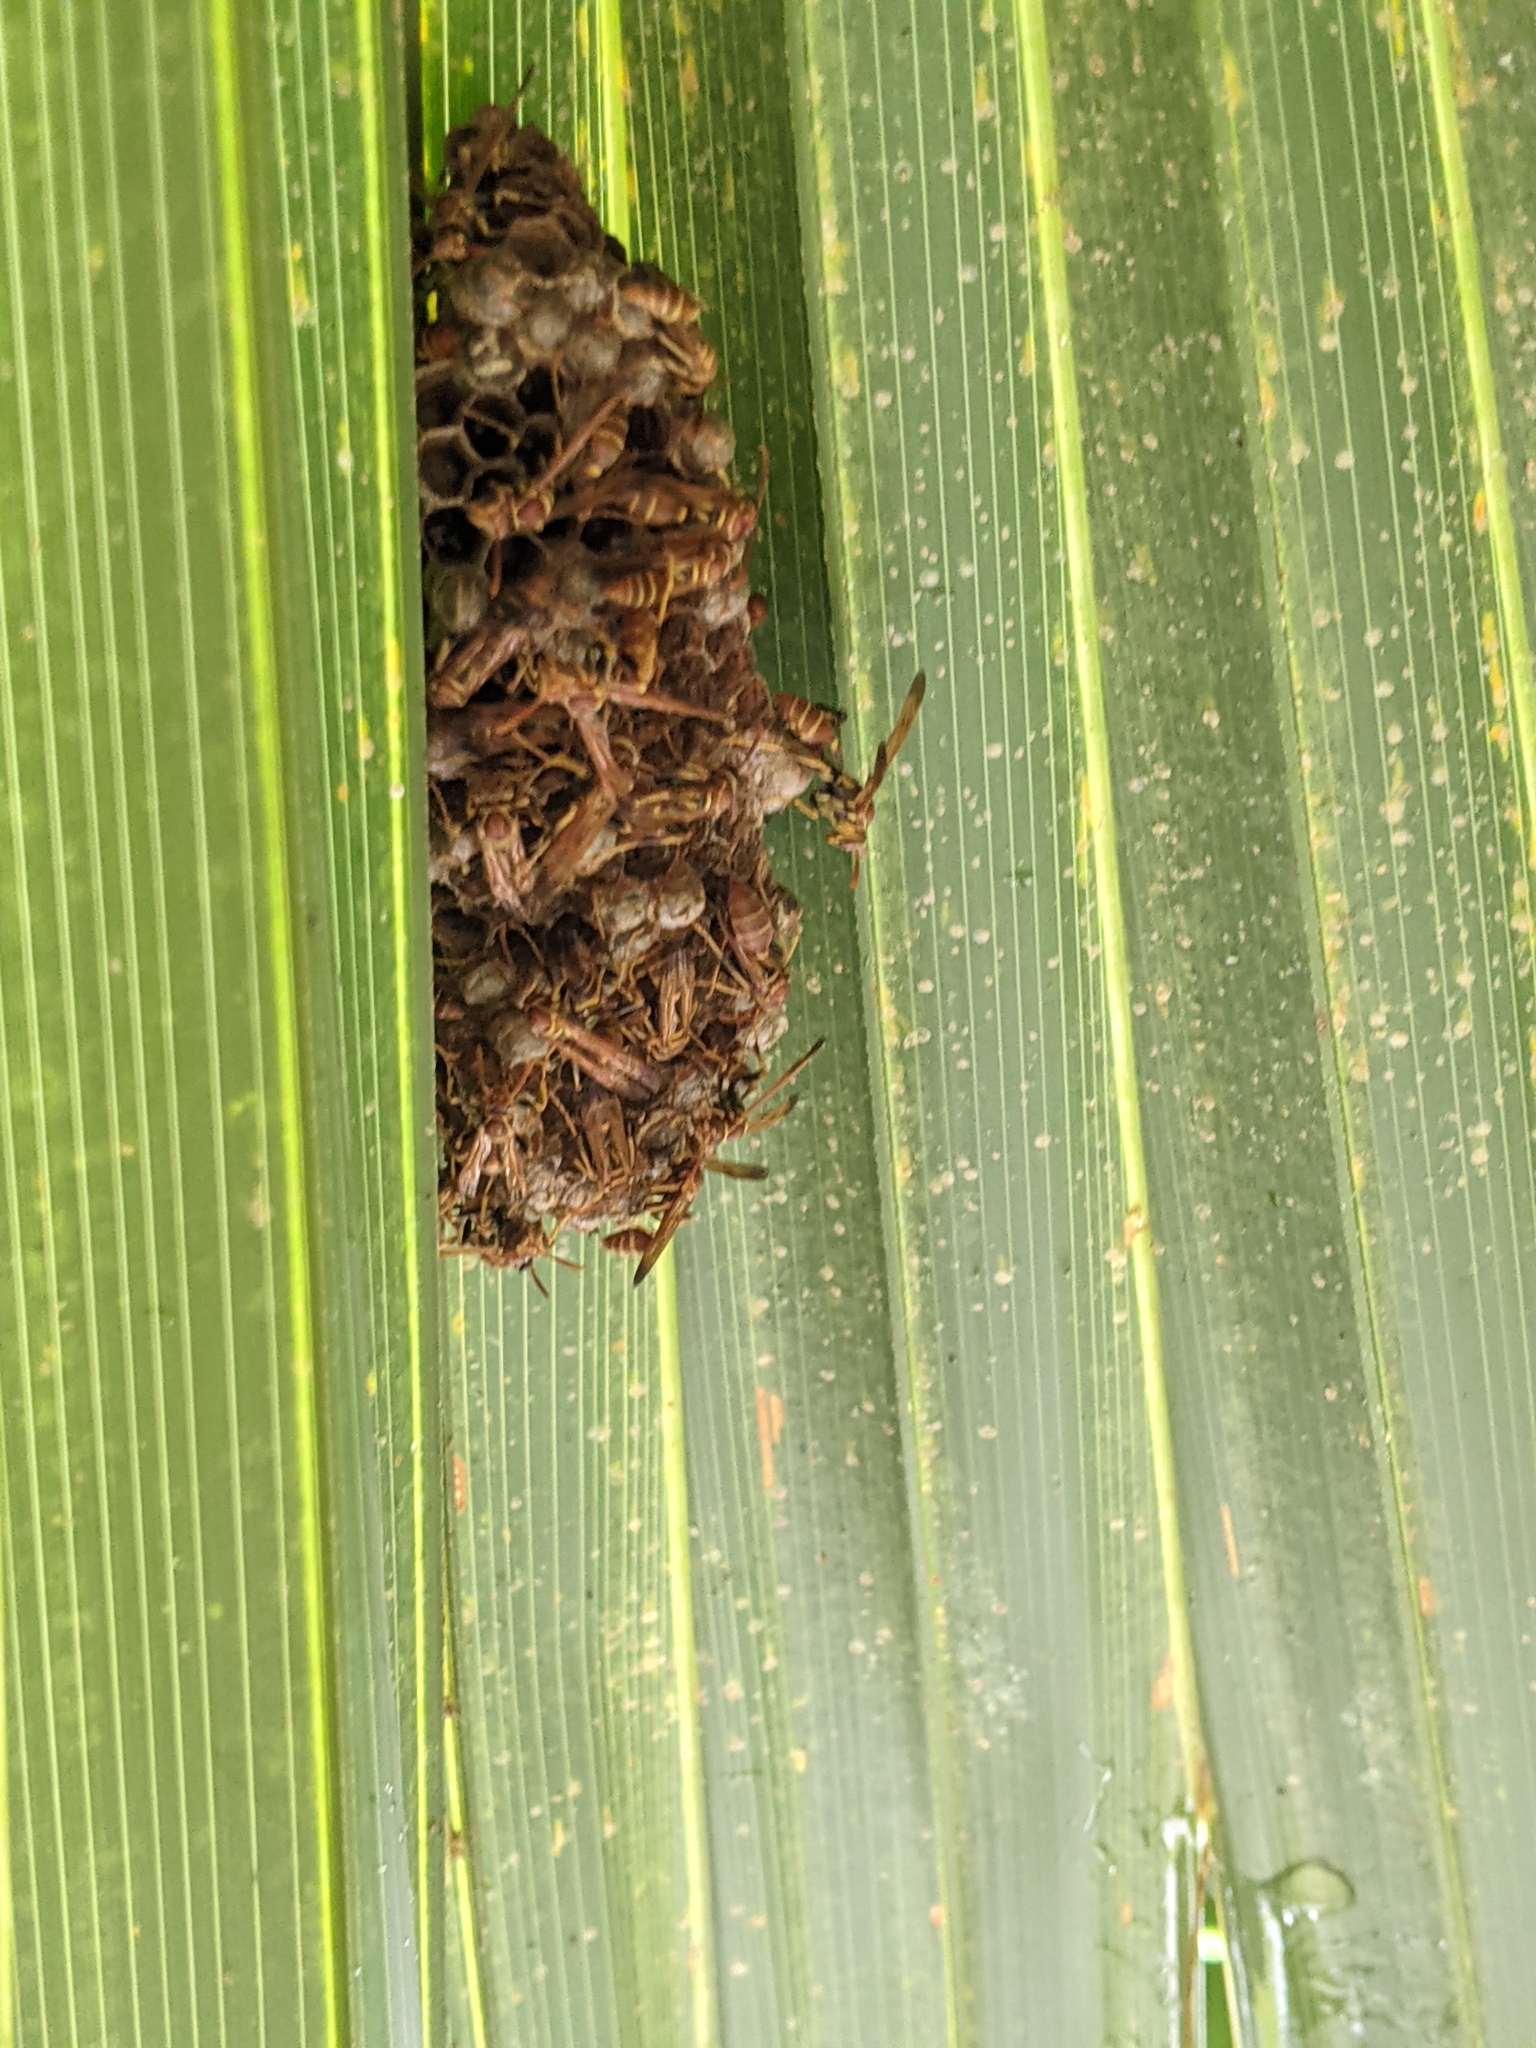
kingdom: Animalia
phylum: Arthropoda
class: Insecta
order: Hymenoptera
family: Vespidae
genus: Mischocyttarus
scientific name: Mischocyttarus mexicanus
